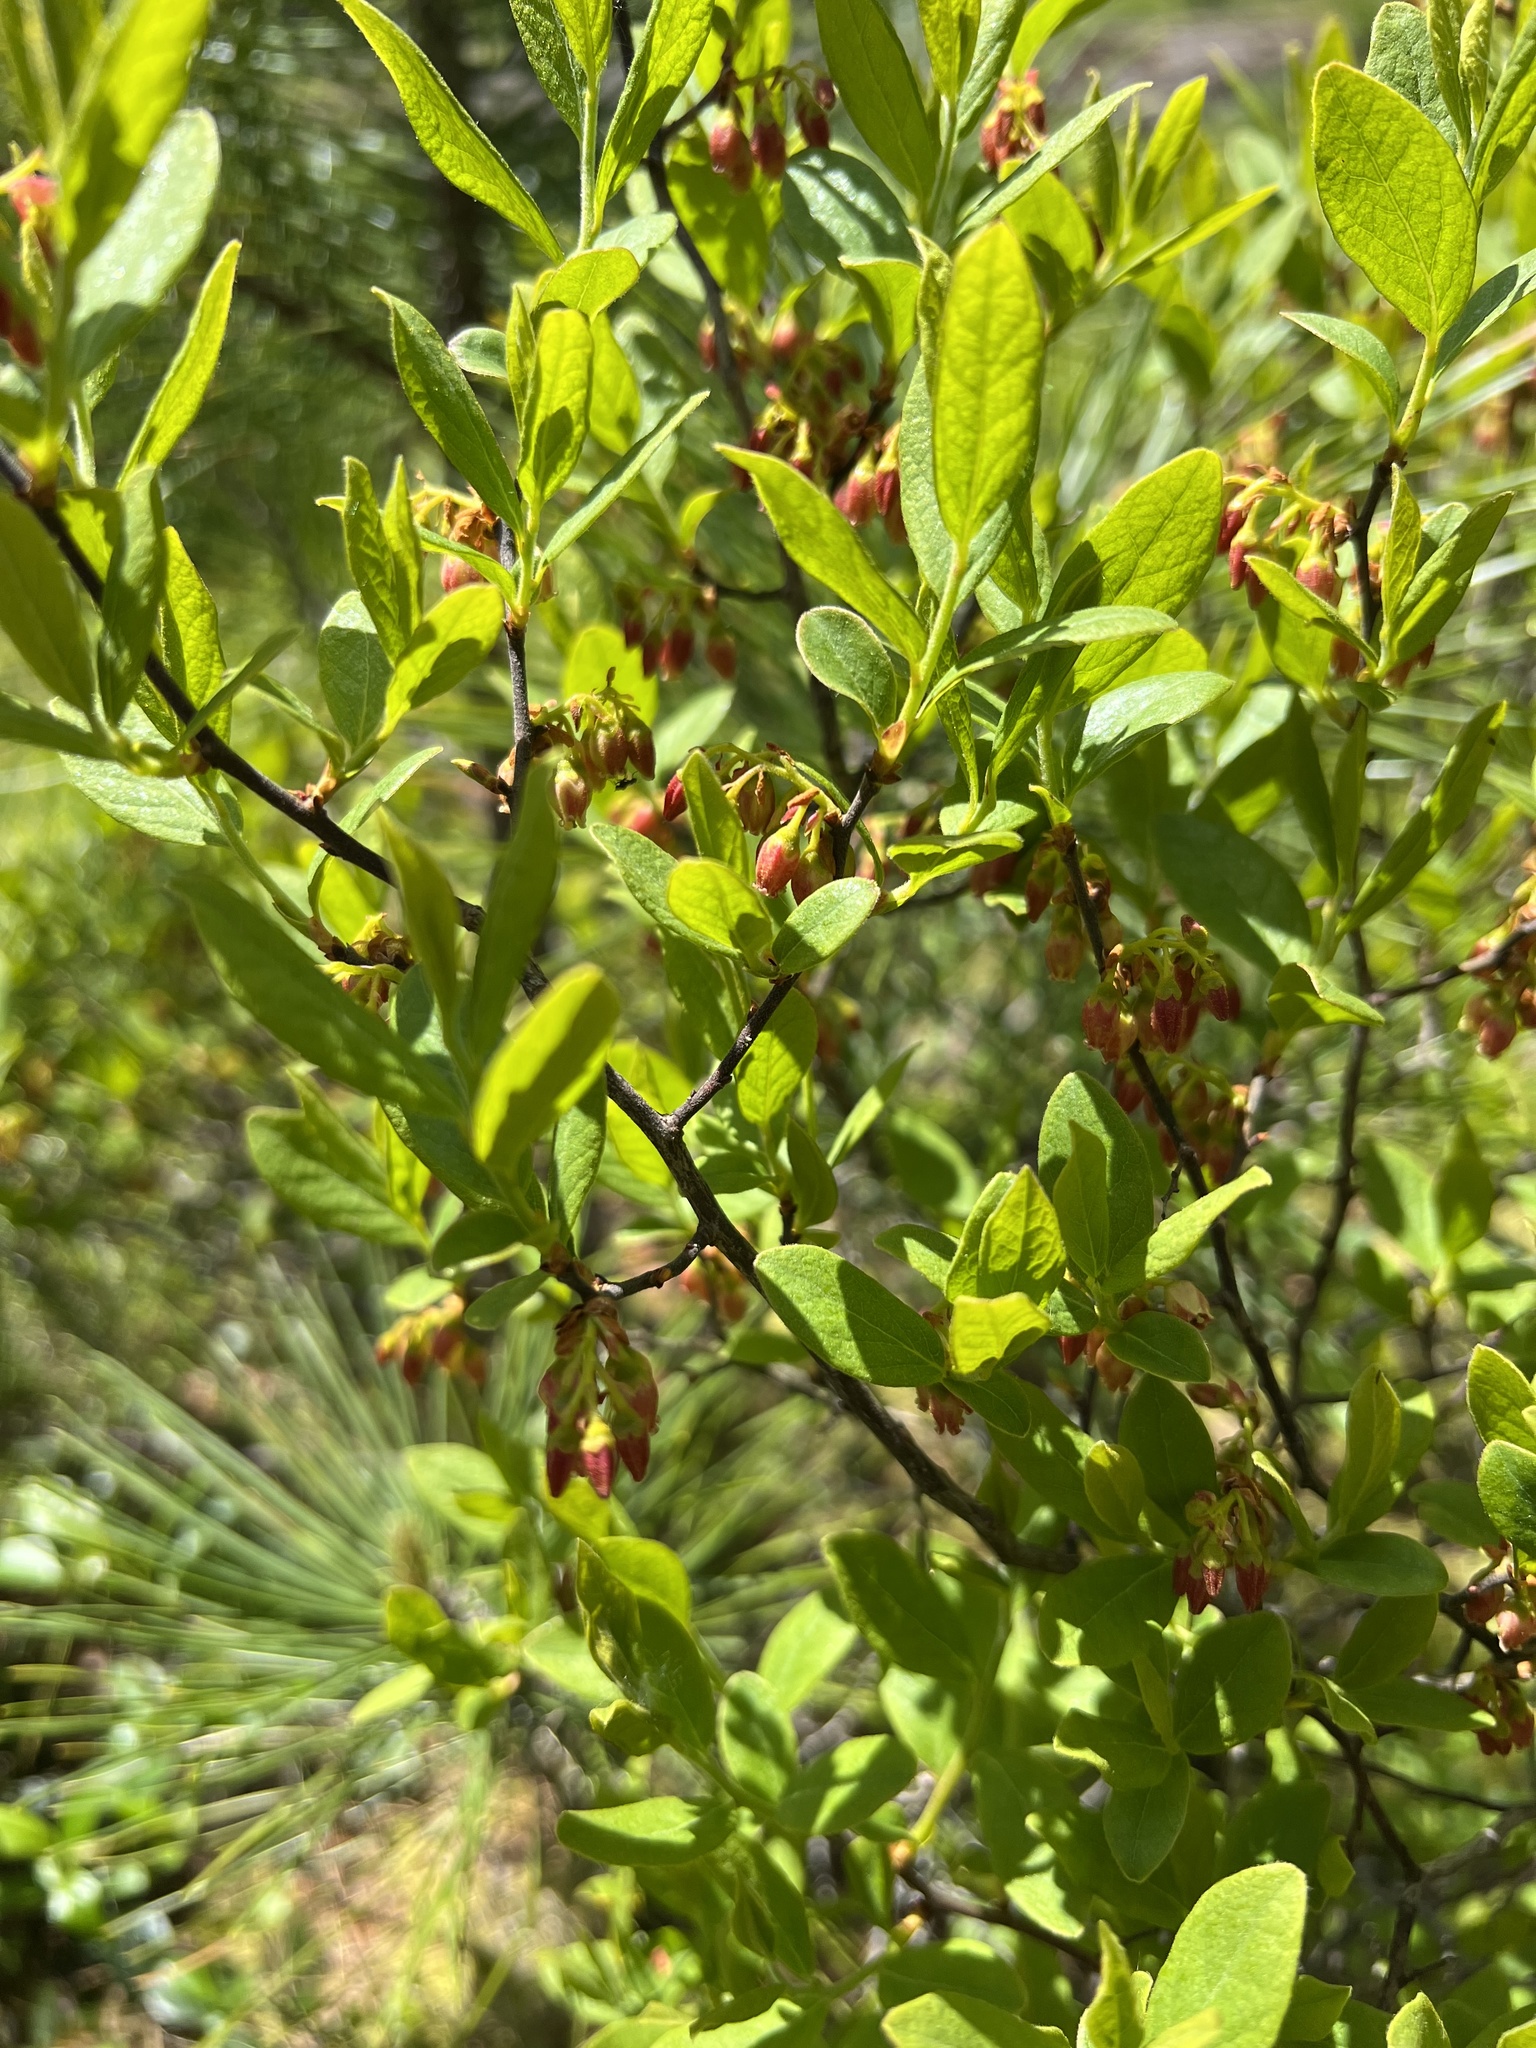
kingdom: Plantae
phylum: Tracheophyta
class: Magnoliopsida
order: Ericales
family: Ericaceae
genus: Gaylussacia
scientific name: Gaylussacia baccata
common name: Black huckleberry
